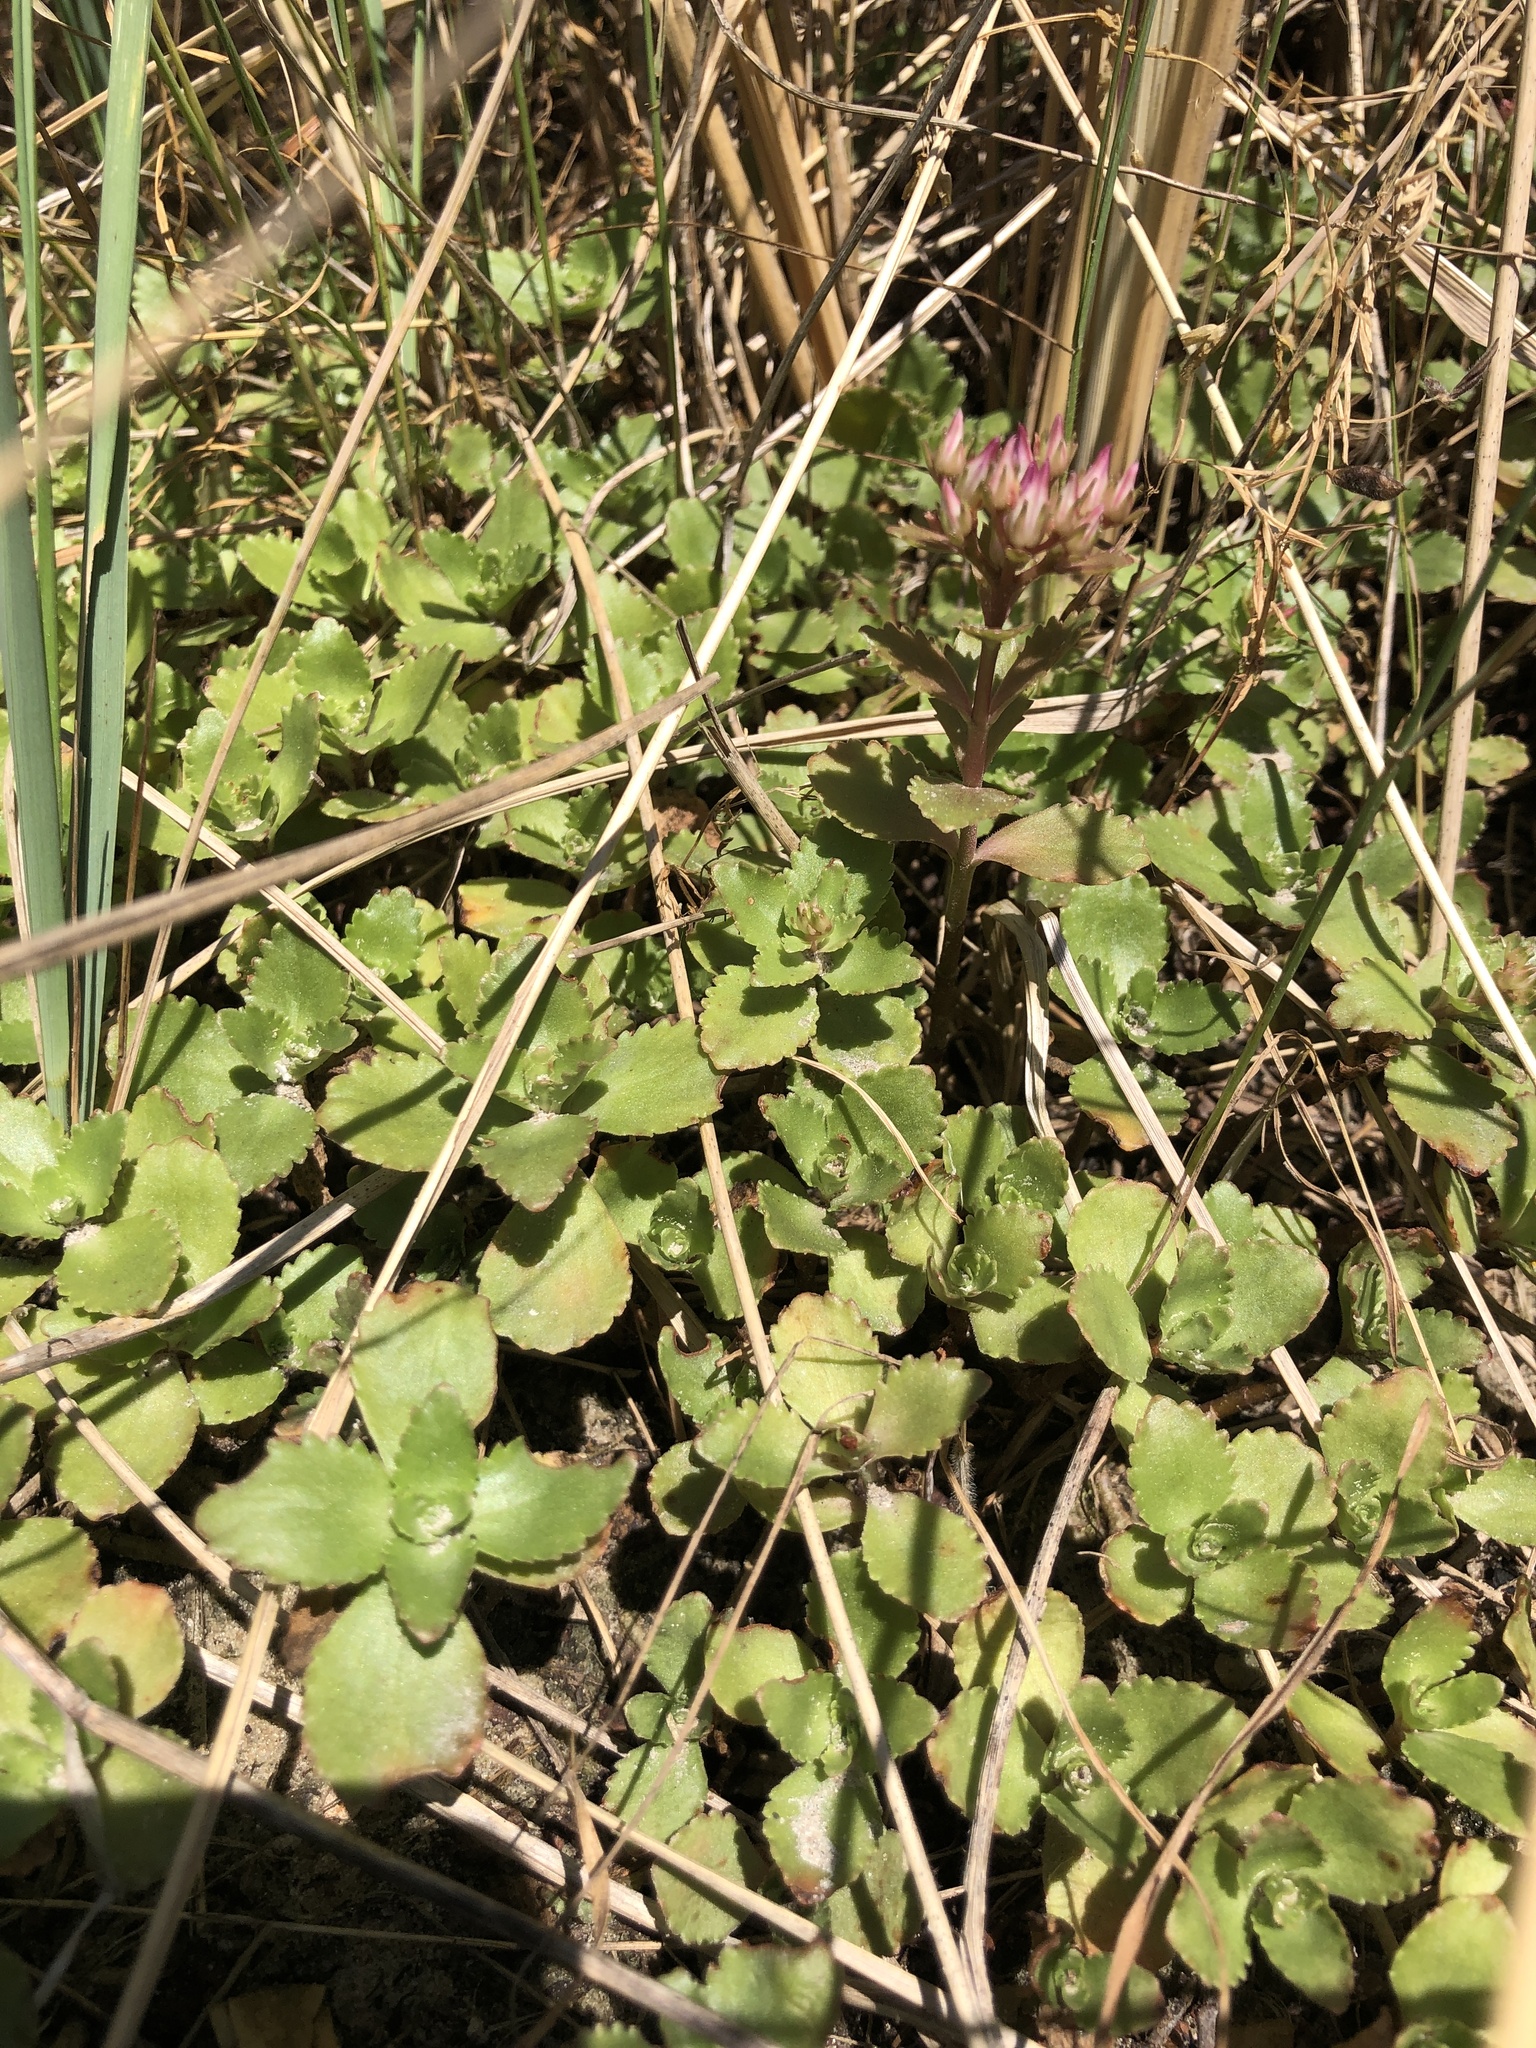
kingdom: Plantae
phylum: Tracheophyta
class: Magnoliopsida
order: Saxifragales
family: Crassulaceae
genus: Phedimus
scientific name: Phedimus spurius
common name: Caucasian stonecrop
